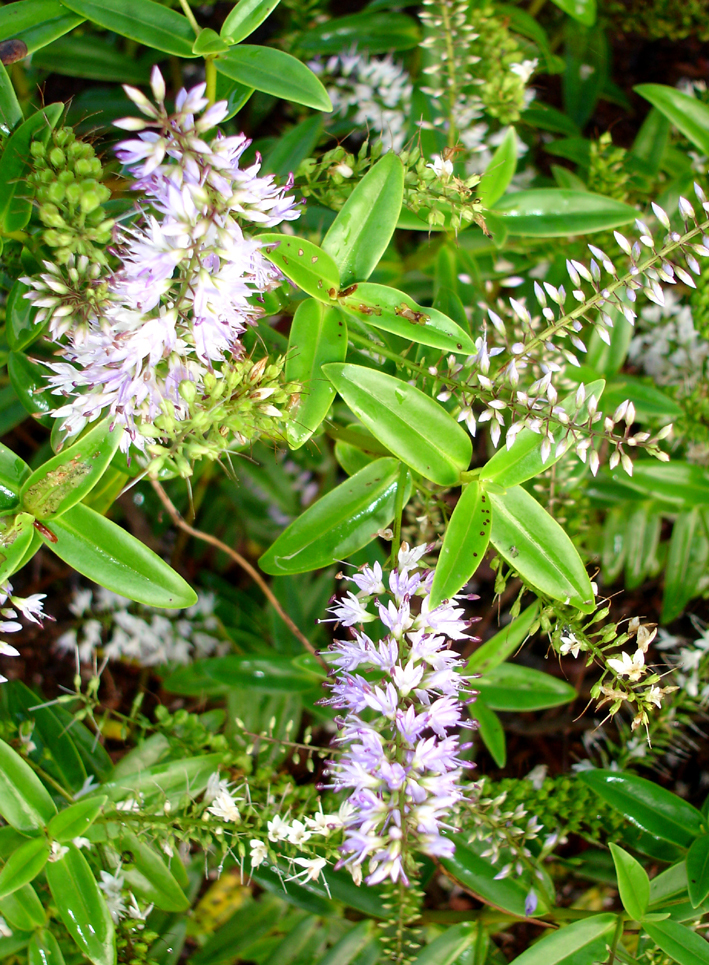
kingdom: Plantae
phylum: Tracheophyta
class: Magnoliopsida
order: Lamiales
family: Plantaginaceae
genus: Veronica
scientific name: Veronica pubescens
